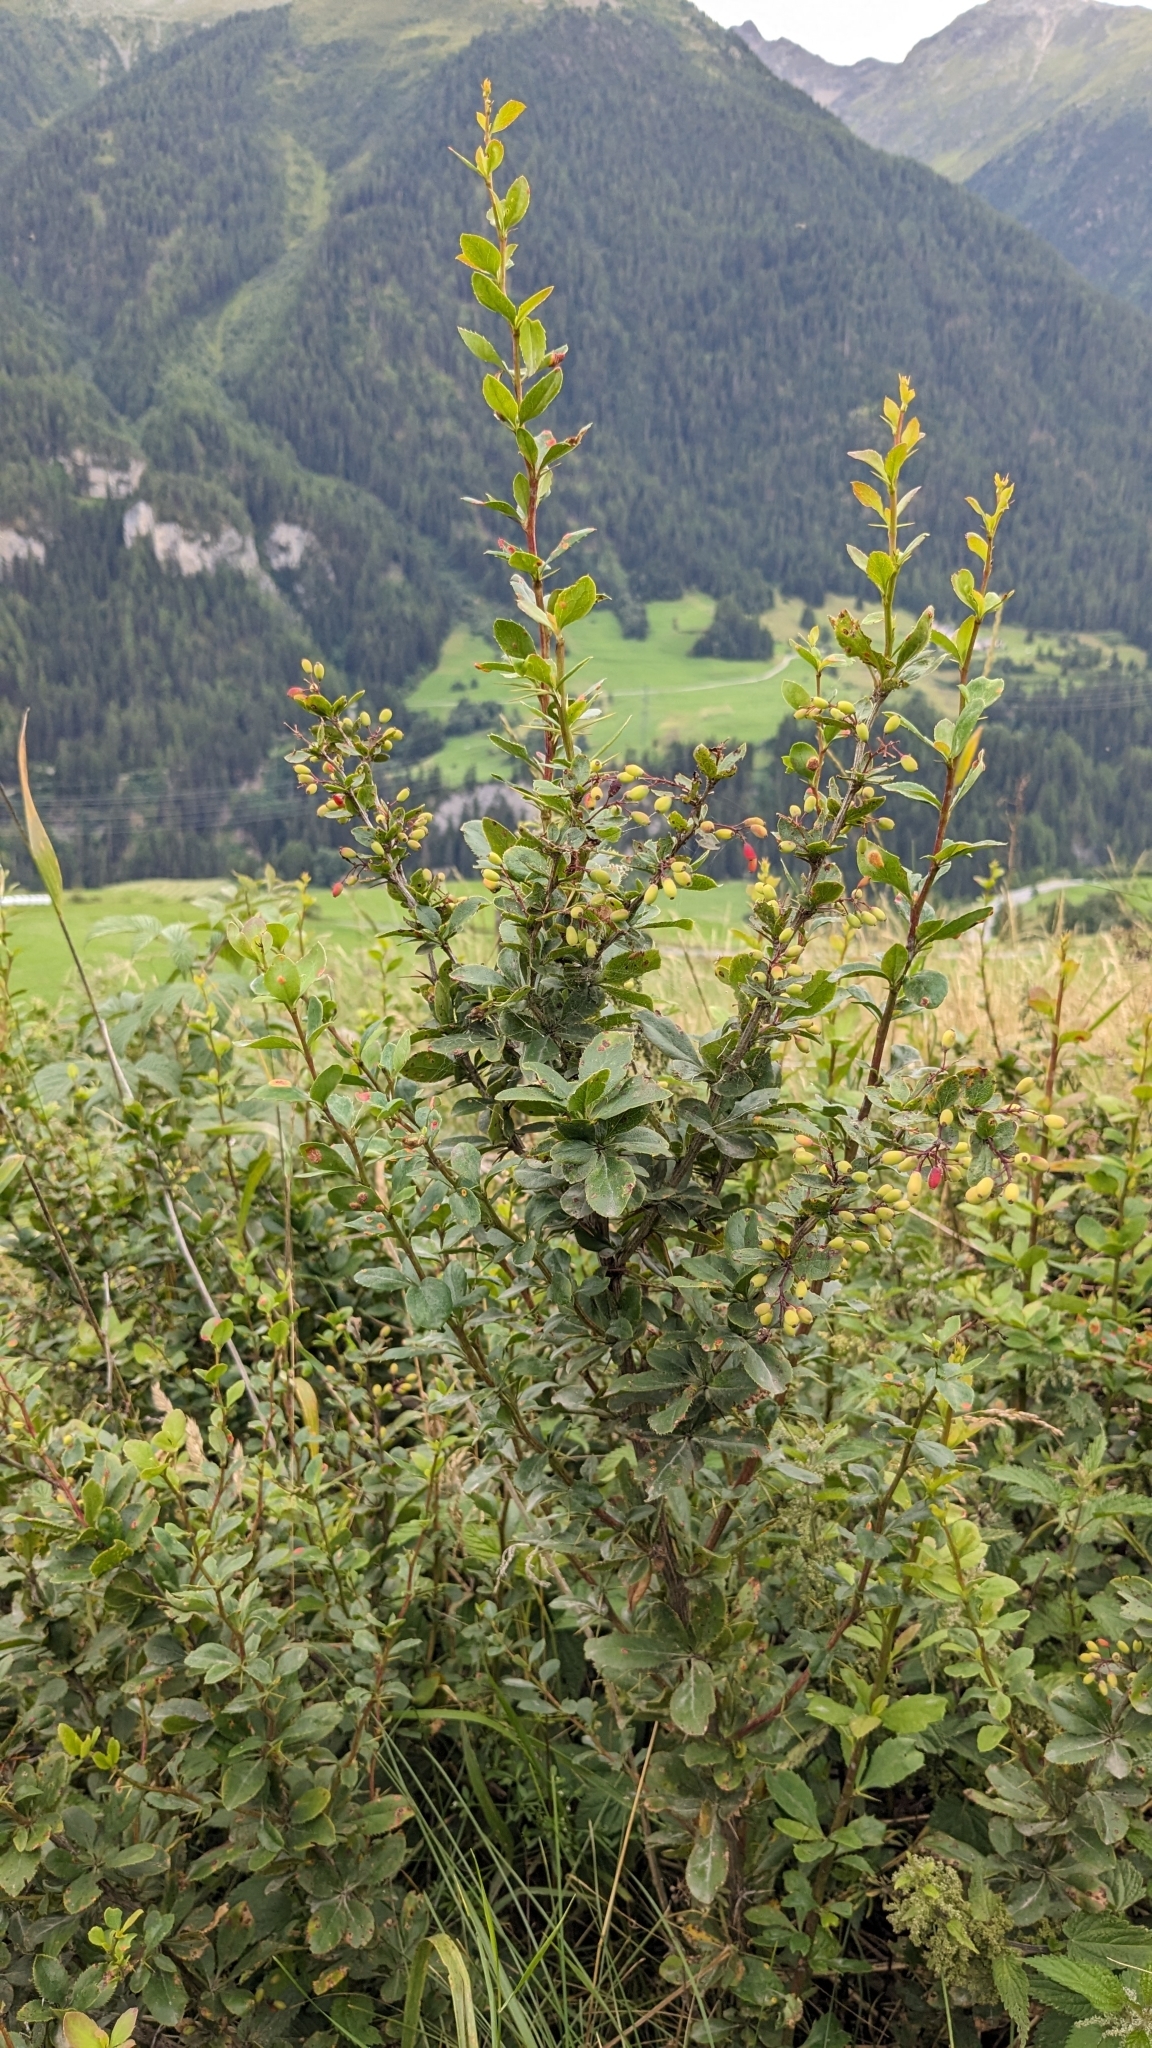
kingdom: Plantae
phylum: Tracheophyta
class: Magnoliopsida
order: Ranunculales
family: Berberidaceae
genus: Berberis
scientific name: Berberis vulgaris
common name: Barberry
